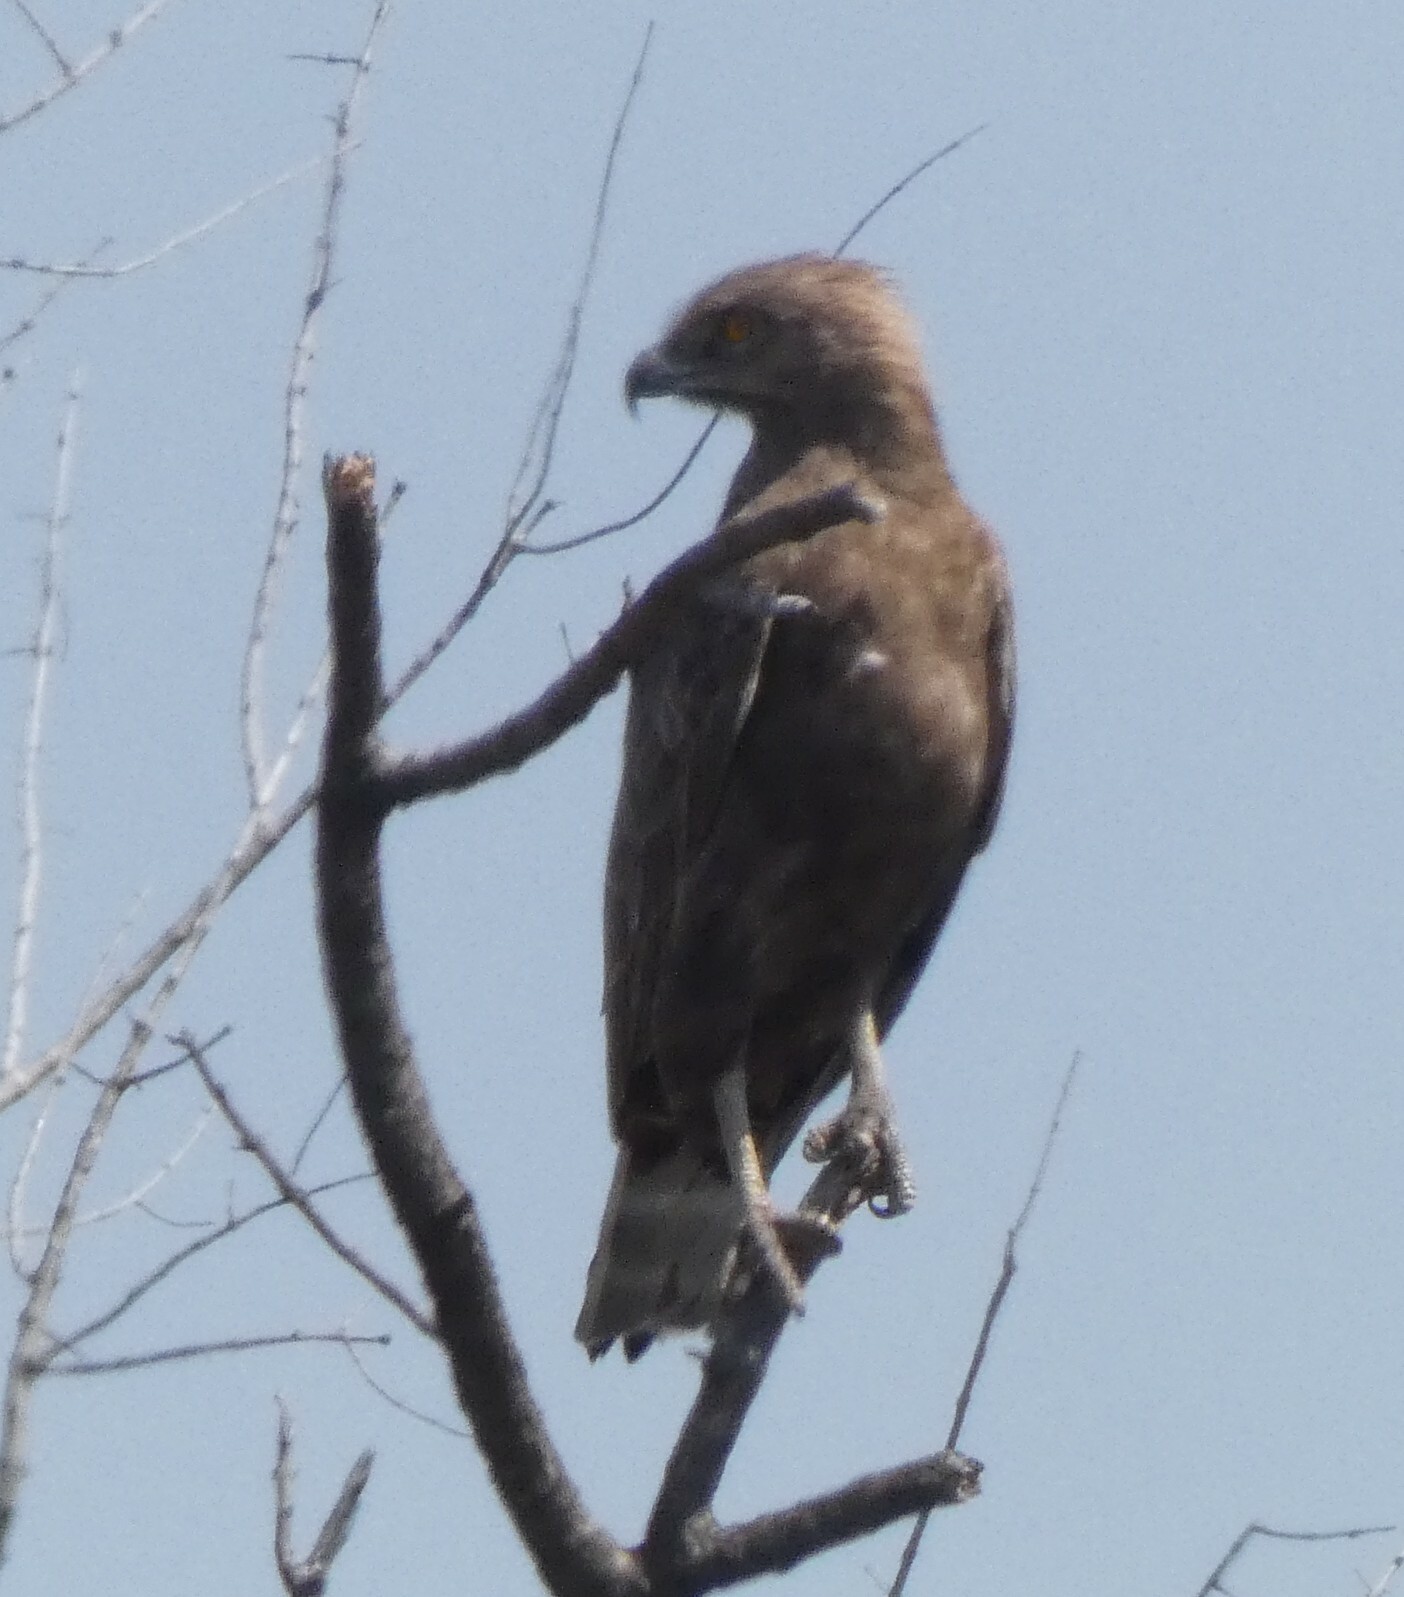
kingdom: Animalia
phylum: Chordata
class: Aves
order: Accipitriformes
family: Accipitridae
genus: Circaetus
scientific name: Circaetus cinereus
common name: Brown snake eagle
